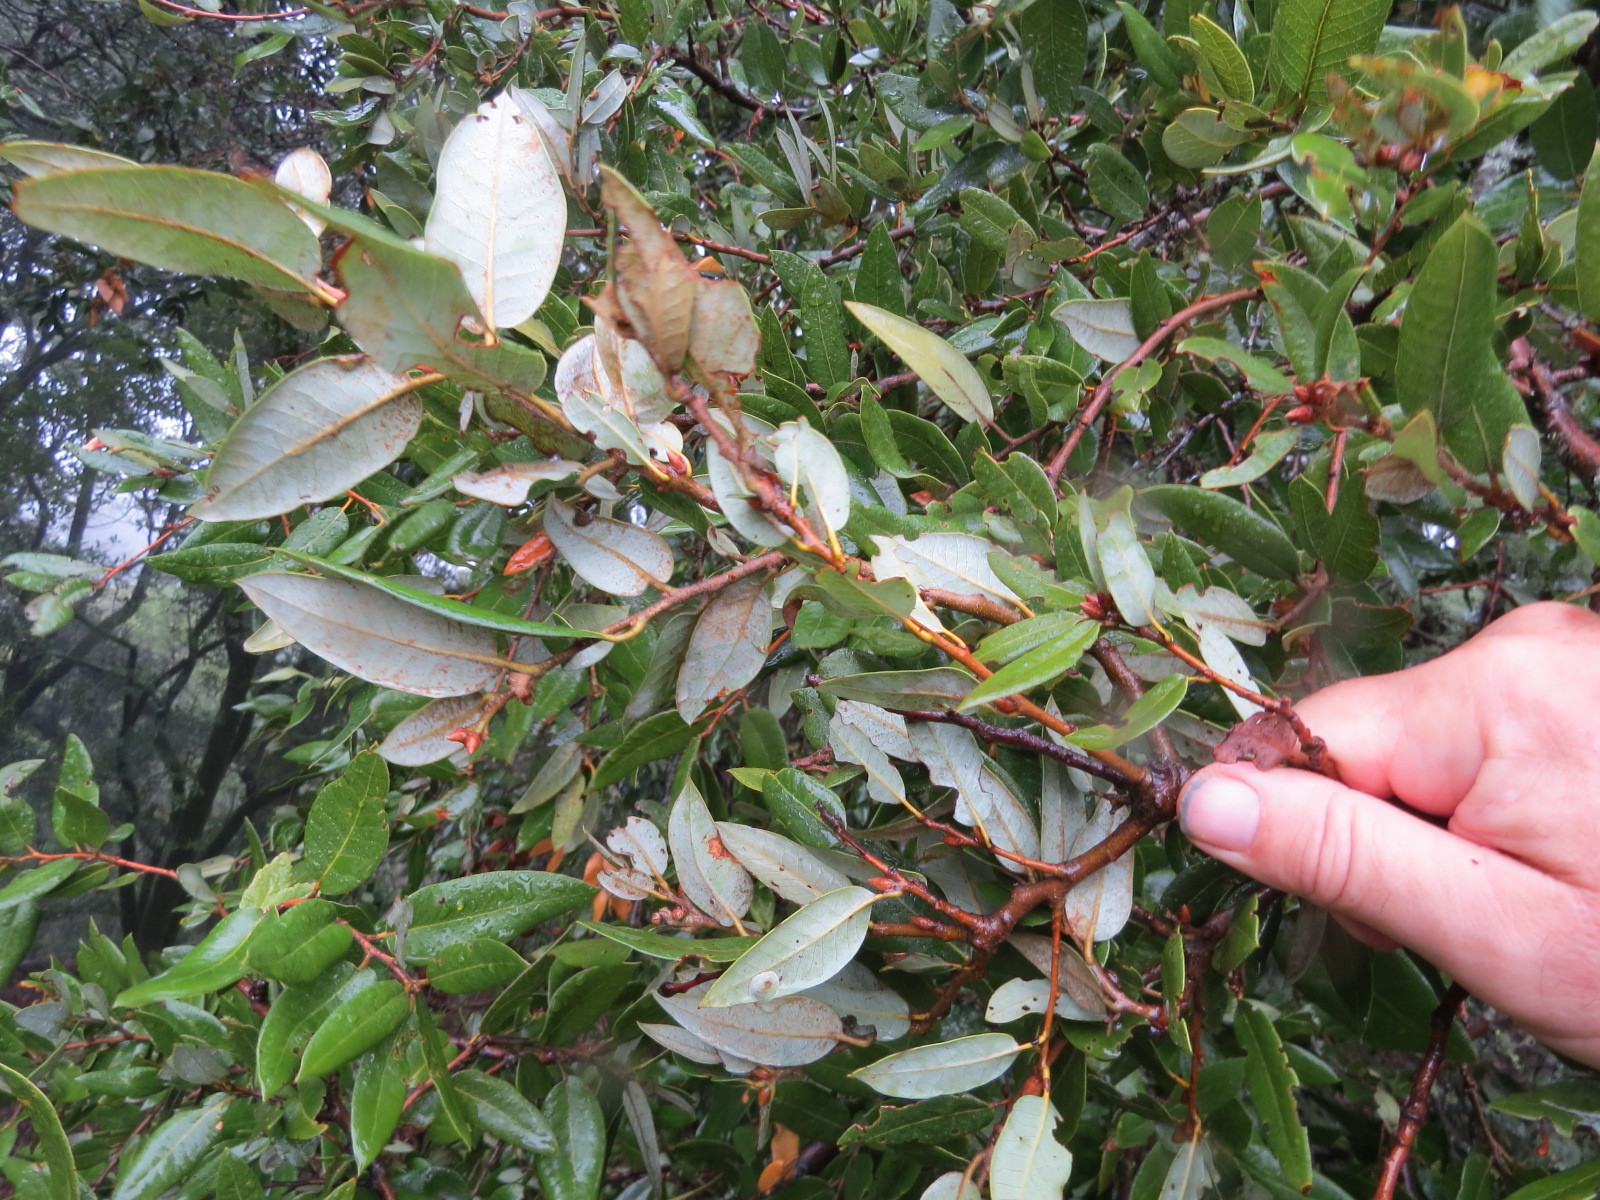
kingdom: Animalia
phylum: Arthropoda
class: Insecta
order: Hymenoptera
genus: Paracraspis
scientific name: Paracraspis
